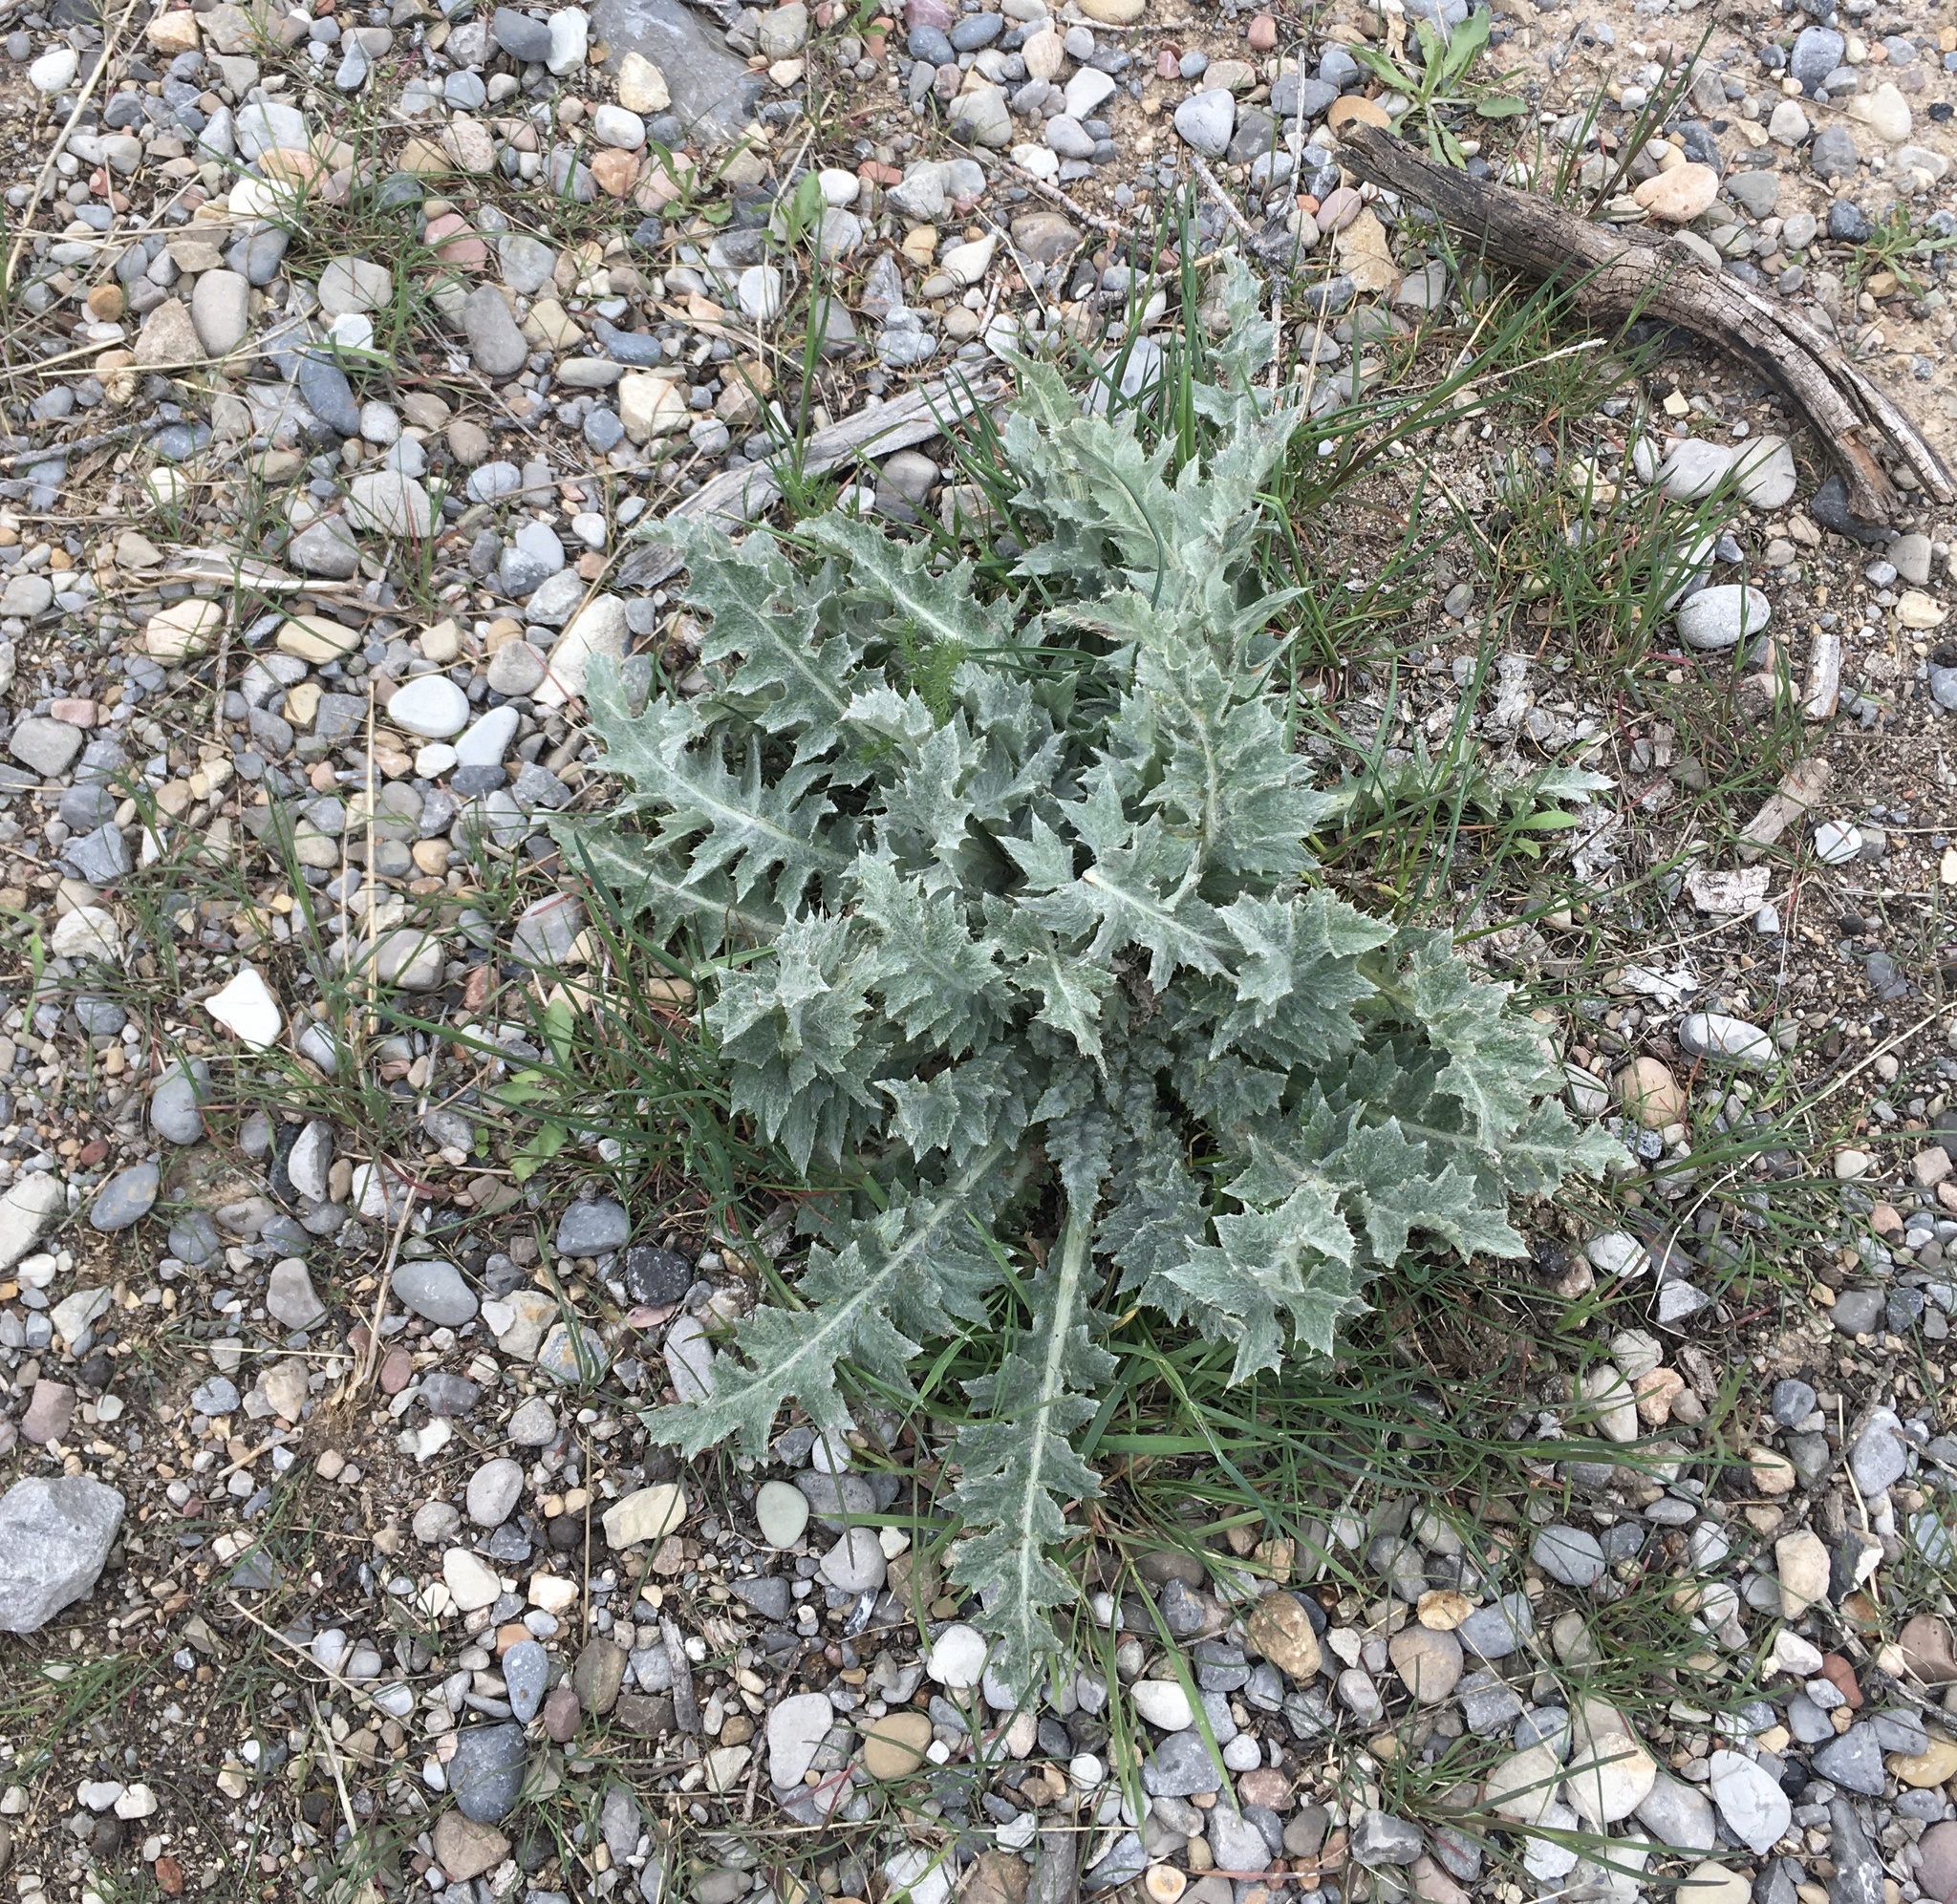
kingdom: Plantae
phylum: Tracheophyta
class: Magnoliopsida
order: Asterales
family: Asteraceae
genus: Cirsium
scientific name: Cirsium vulgare
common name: Bull thistle
